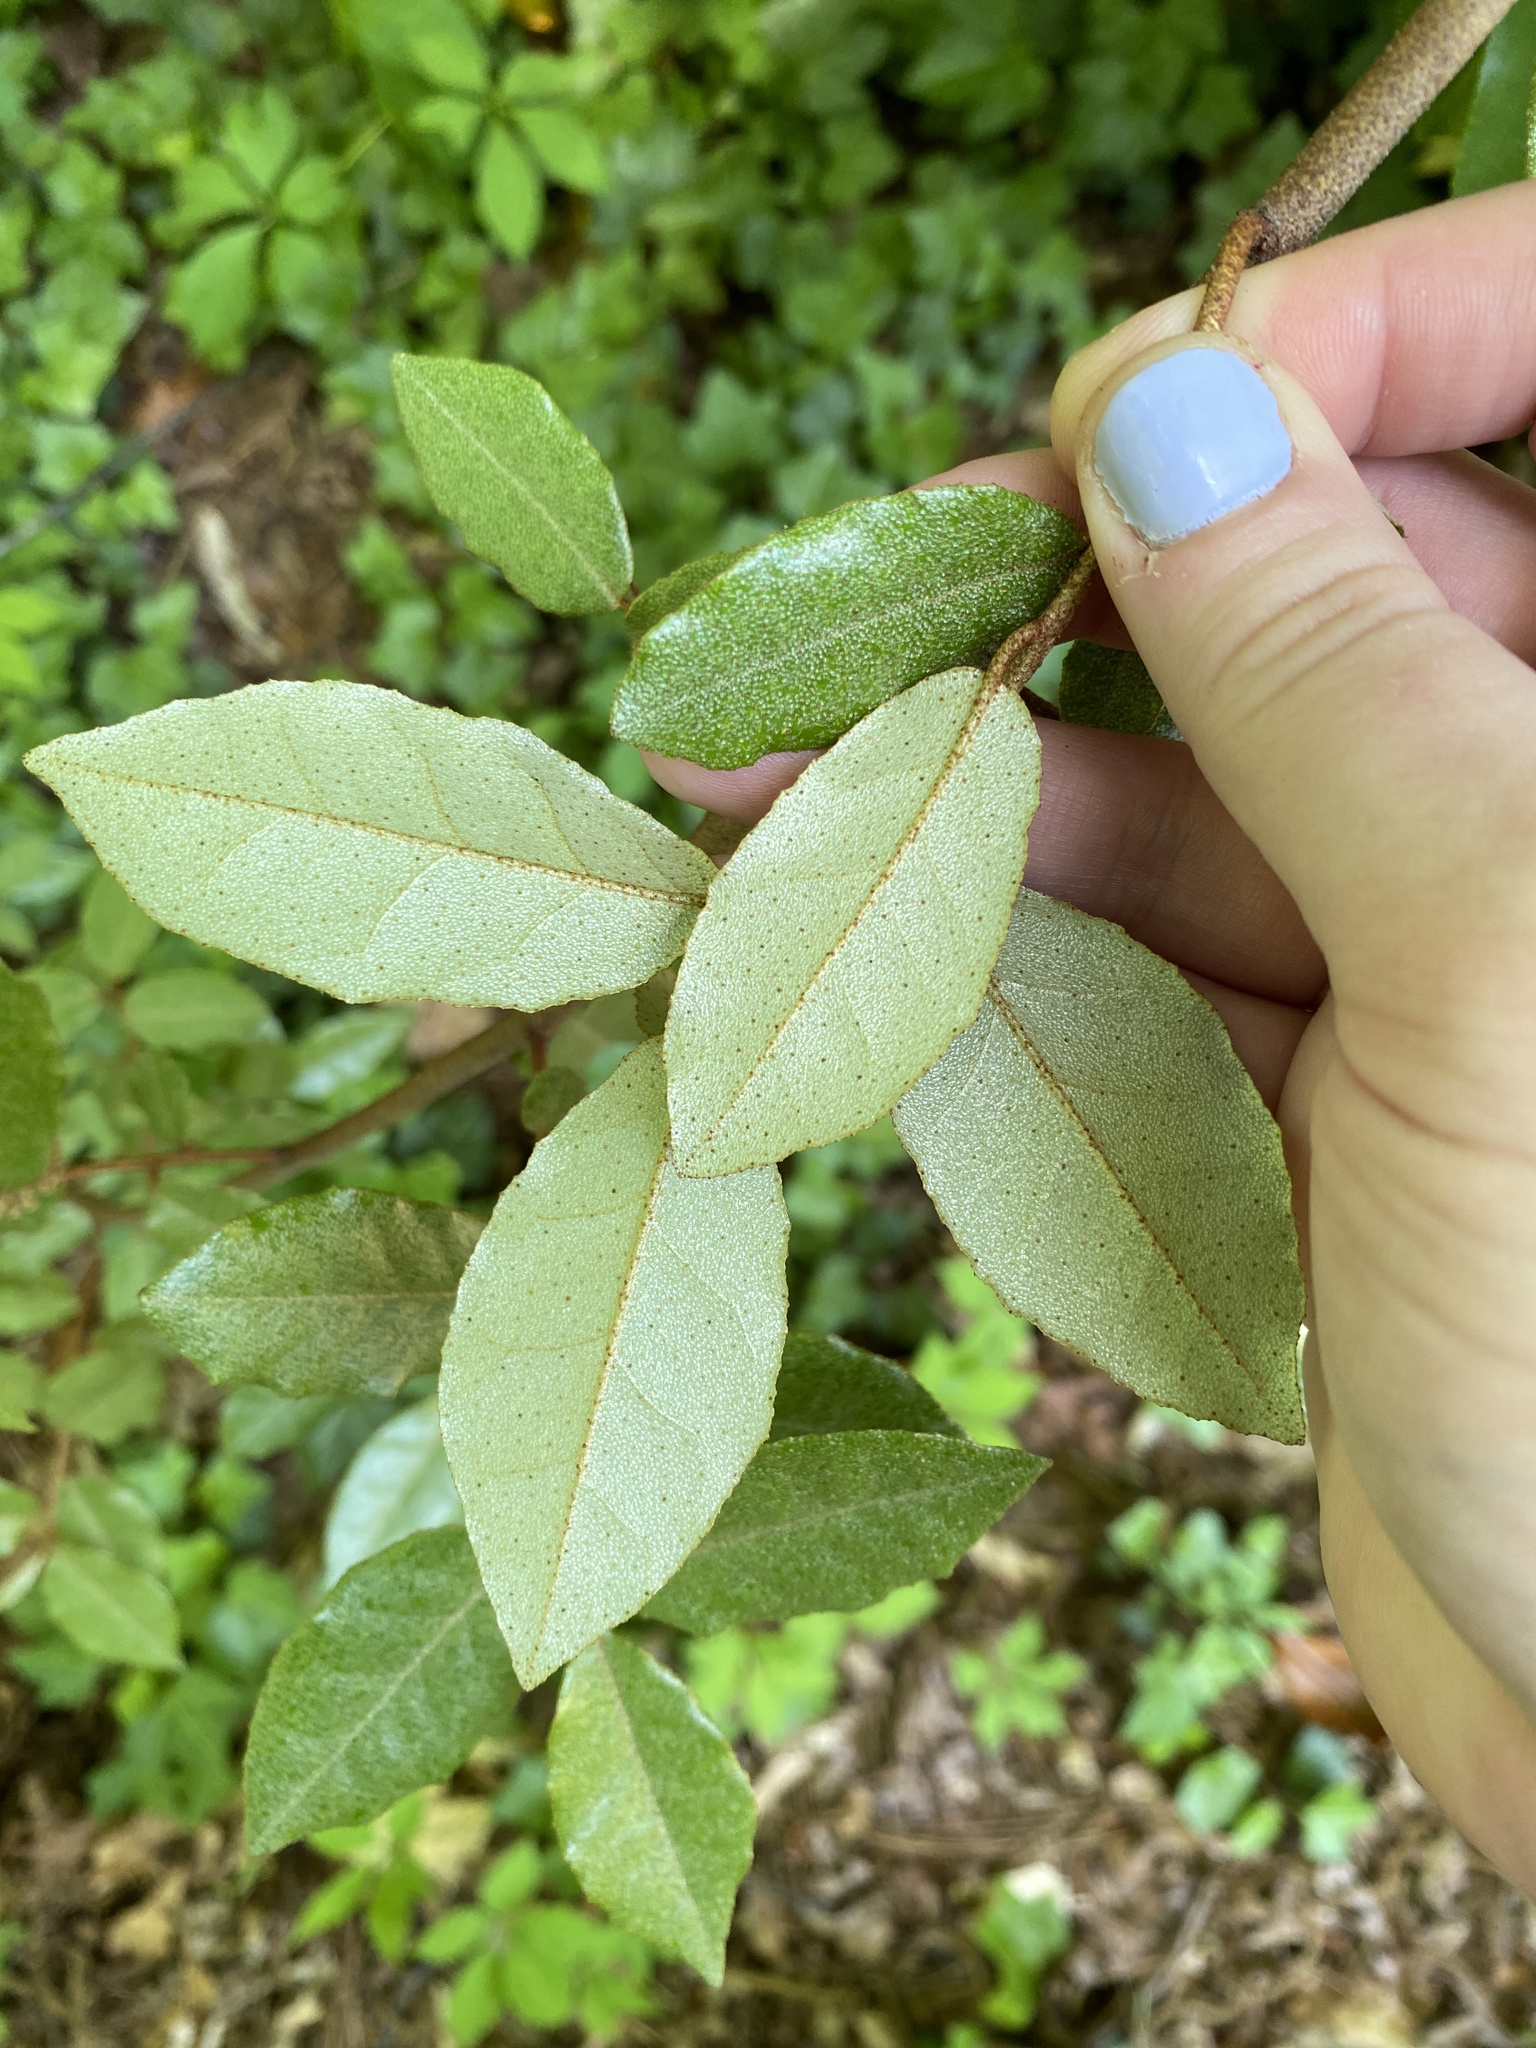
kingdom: Plantae
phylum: Tracheophyta
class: Magnoliopsida
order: Rosales
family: Elaeagnaceae
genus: Elaeagnus
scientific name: Elaeagnus pungens
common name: Spiny oleaster
